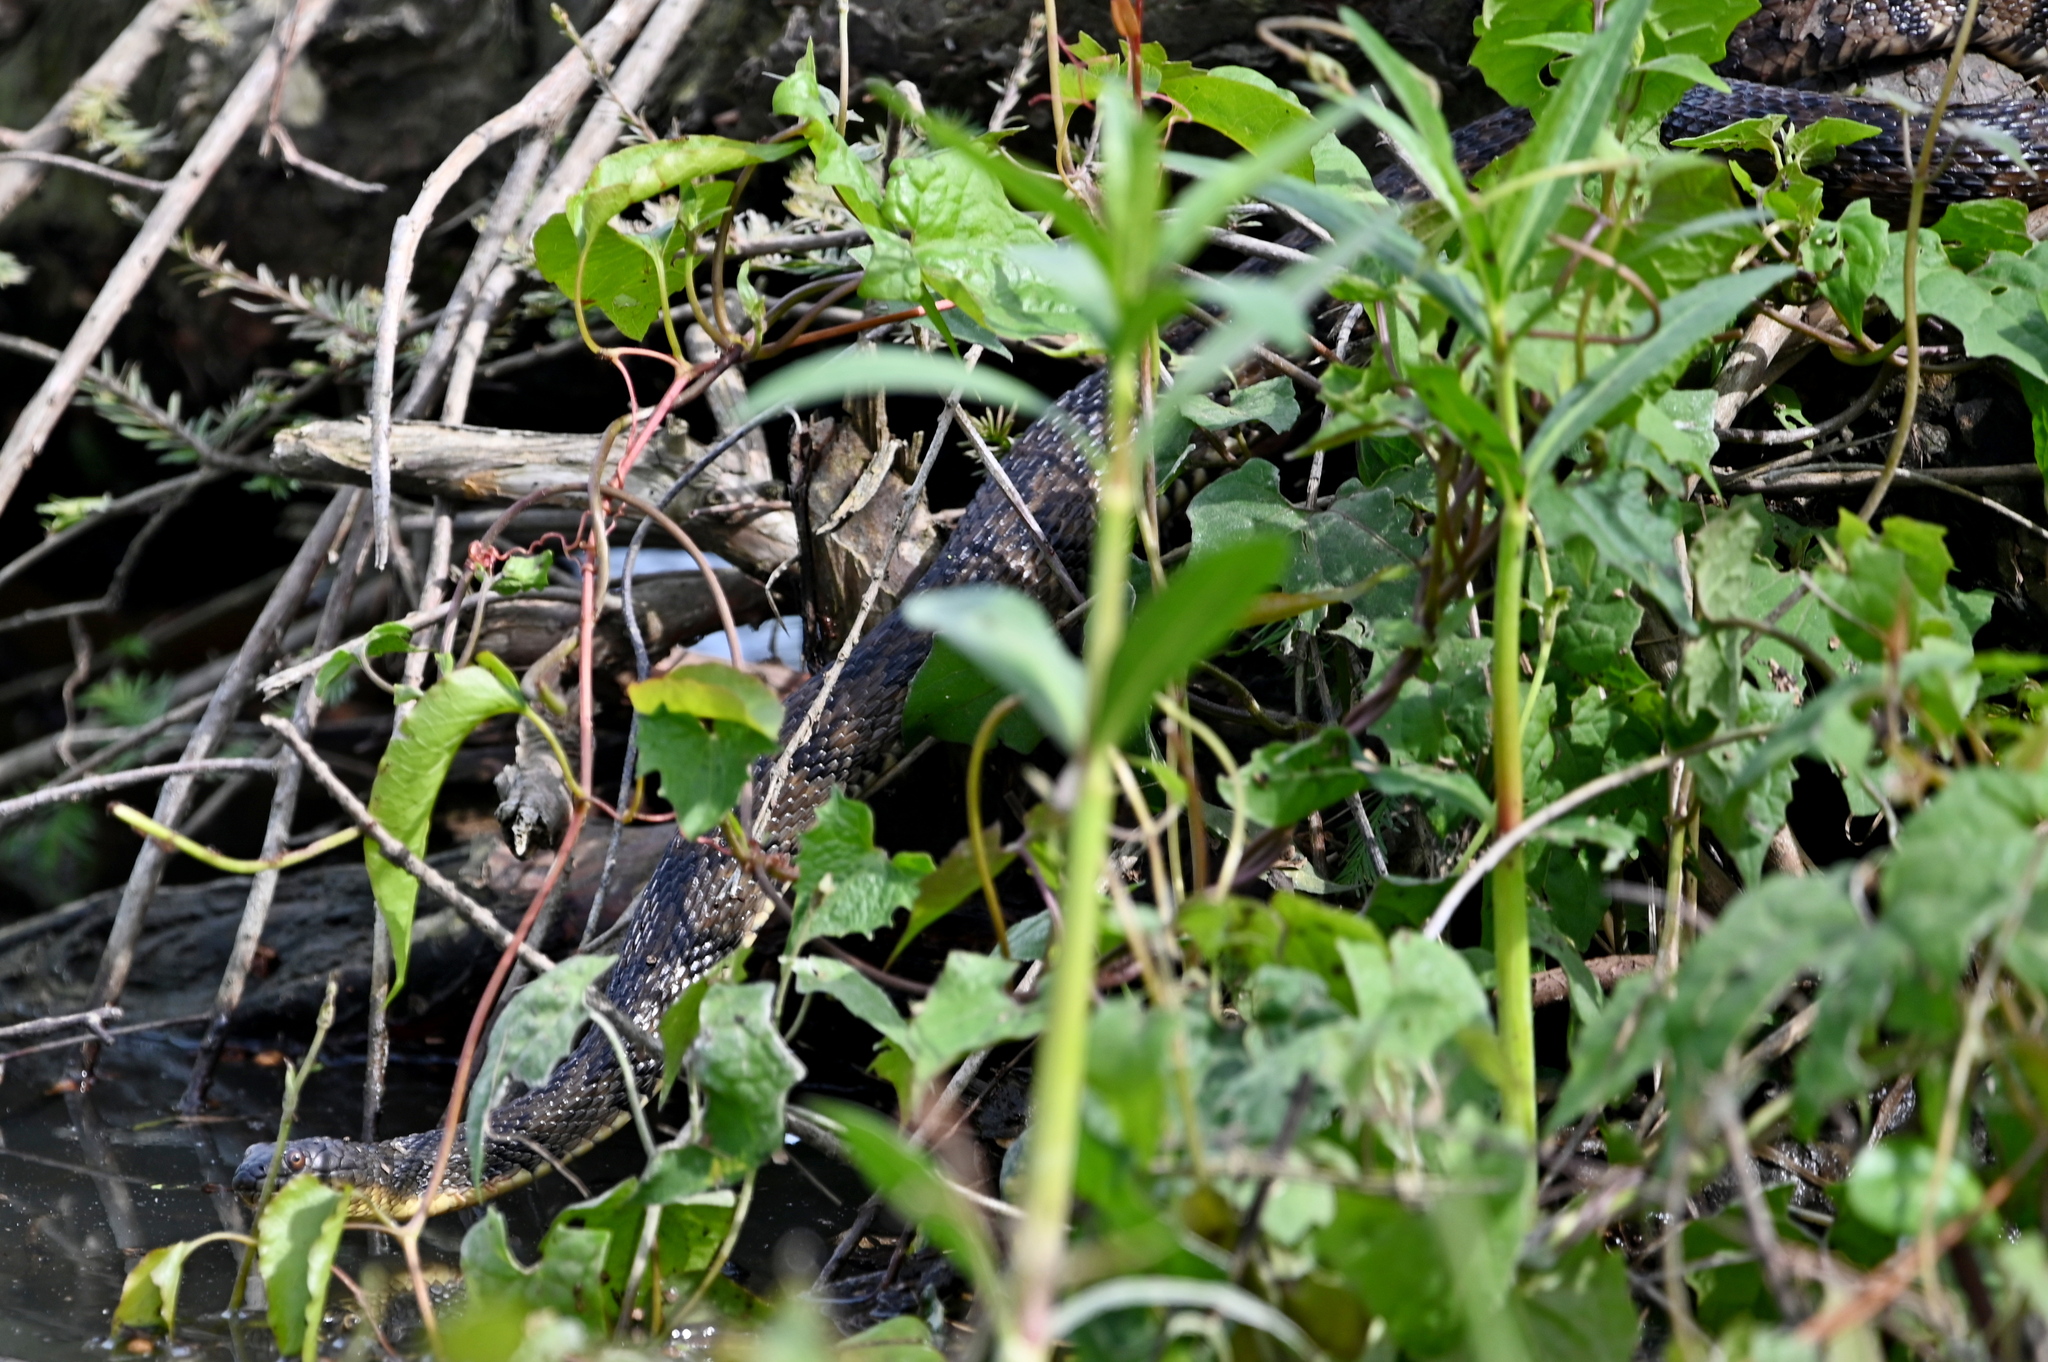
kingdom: Animalia
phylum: Chordata
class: Squamata
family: Colubridae
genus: Nerodia
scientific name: Nerodia rhombifer
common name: Diamondback water snake
